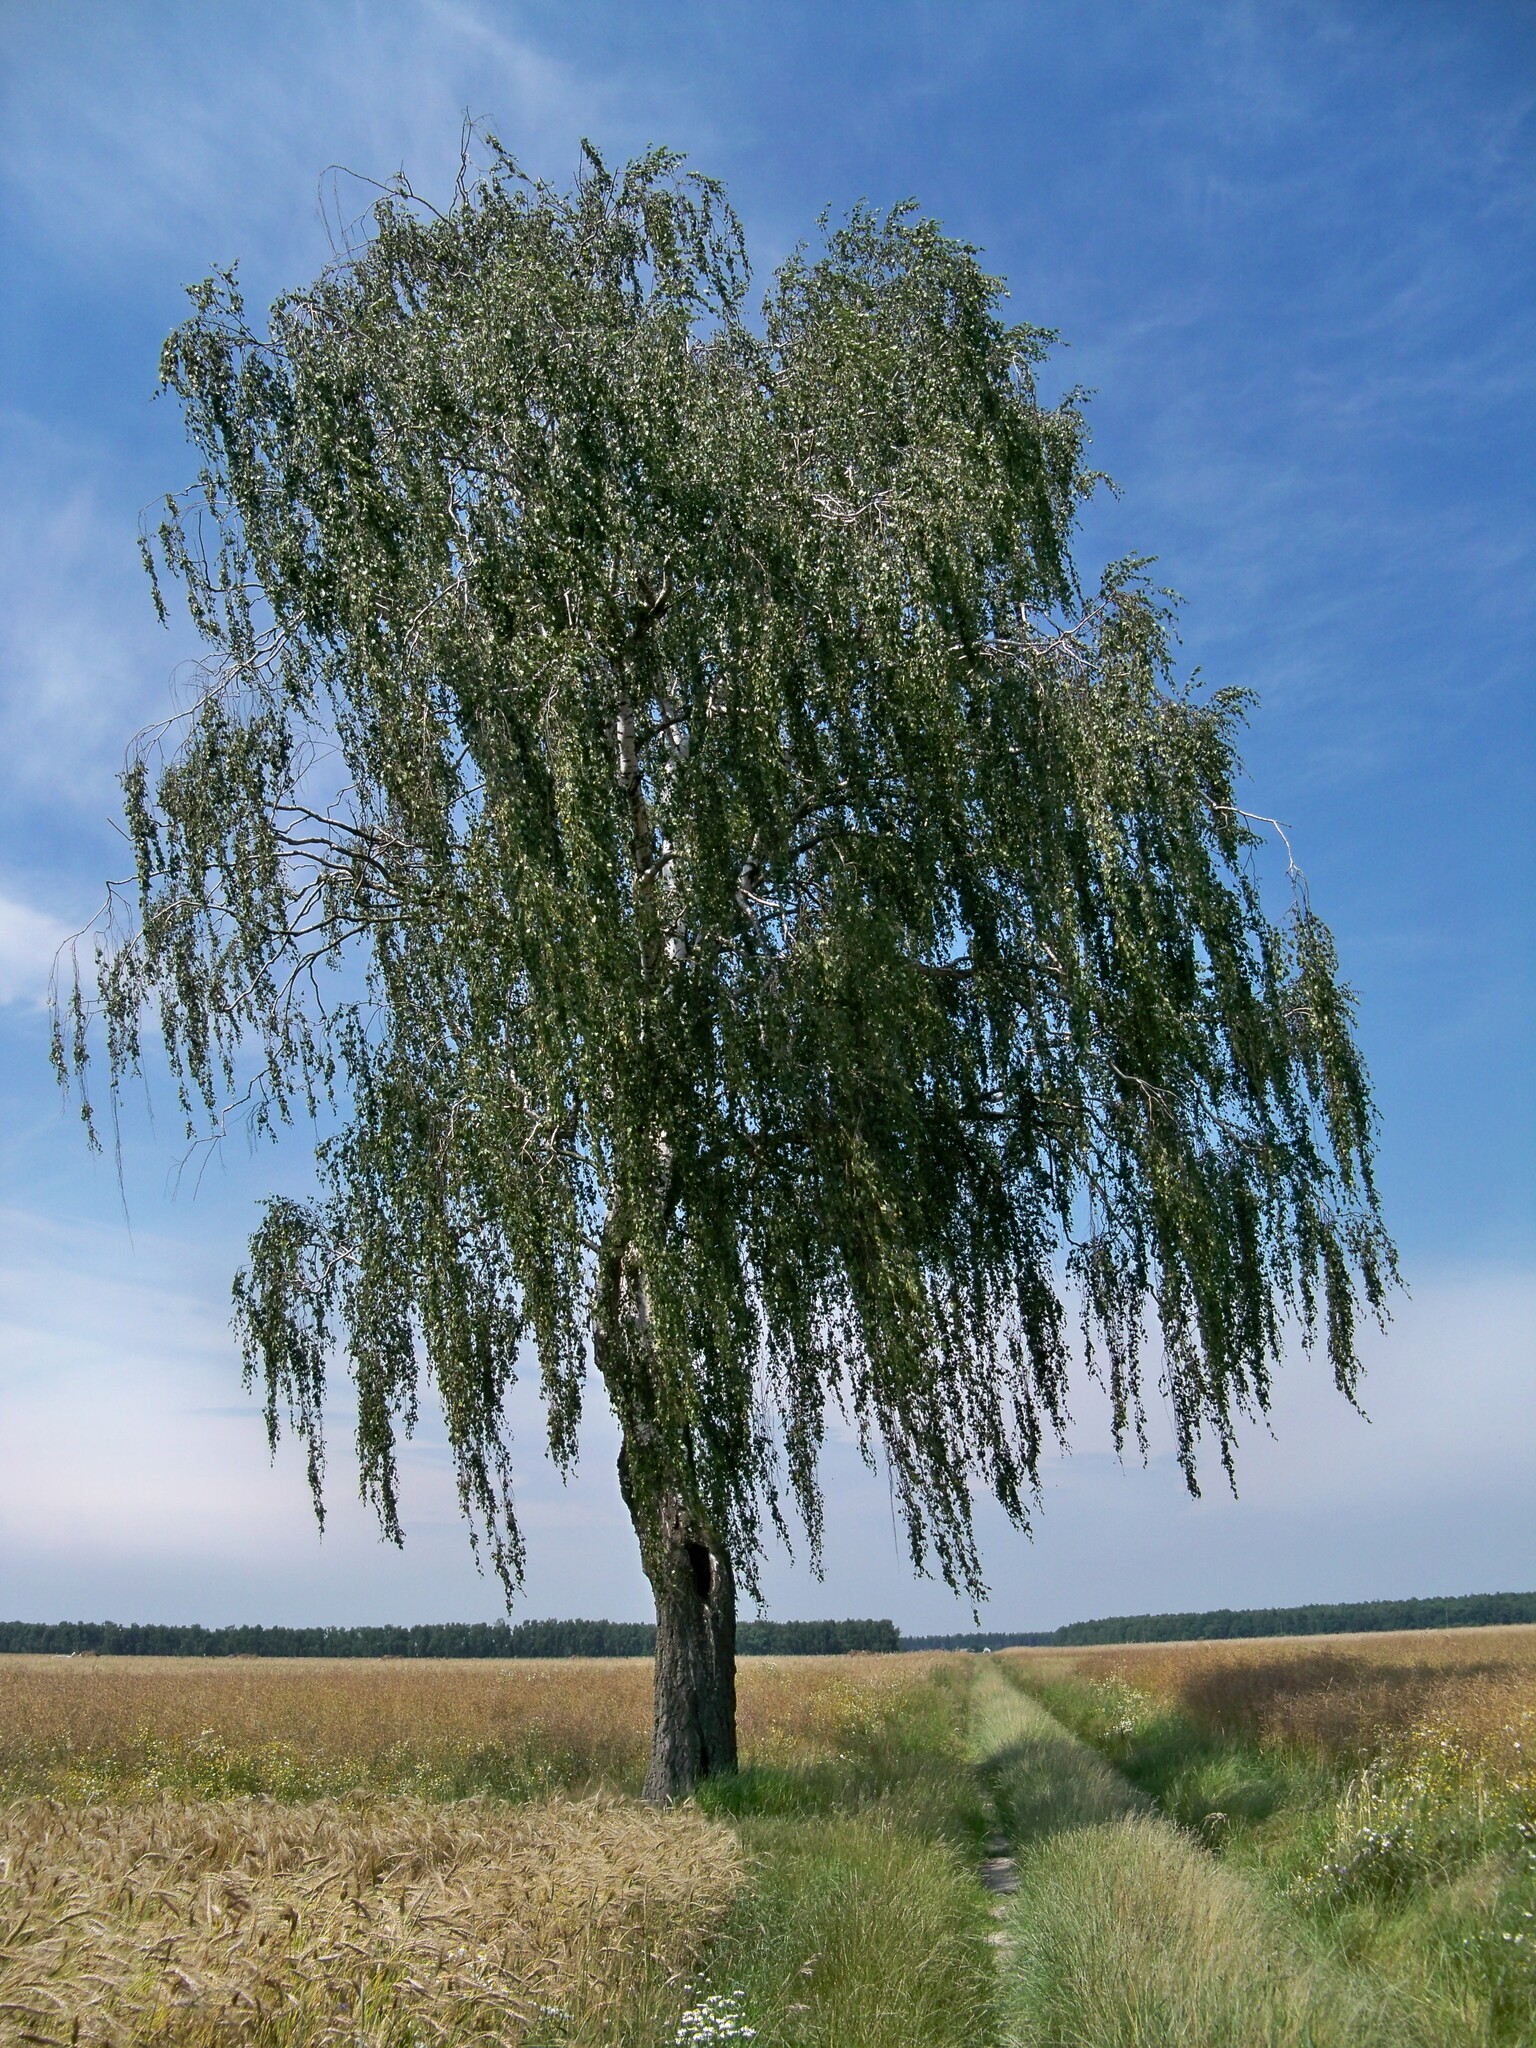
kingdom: Plantae
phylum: Tracheophyta
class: Magnoliopsida
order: Fagales
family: Betulaceae
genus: Betula
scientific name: Betula pendula
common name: Silver birch
